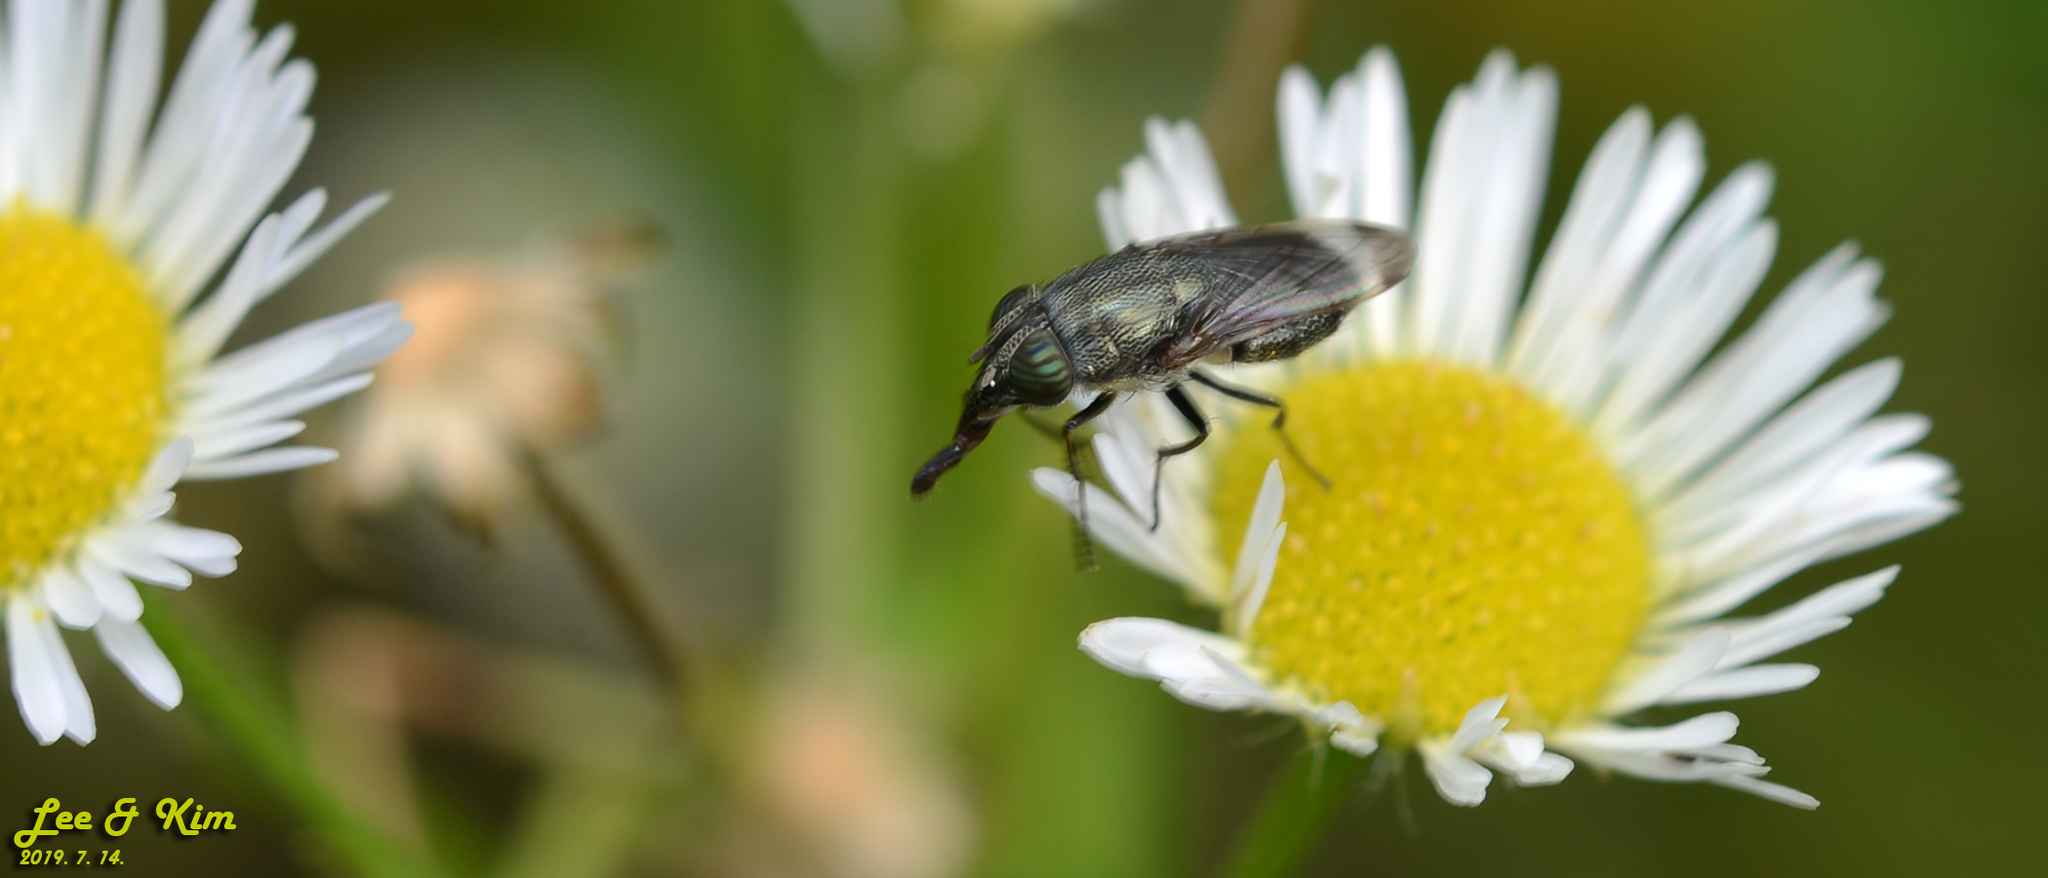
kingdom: Animalia
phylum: Arthropoda
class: Insecta
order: Diptera
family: Calliphoridae
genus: Rhinia
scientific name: Rhinia obsoleta
